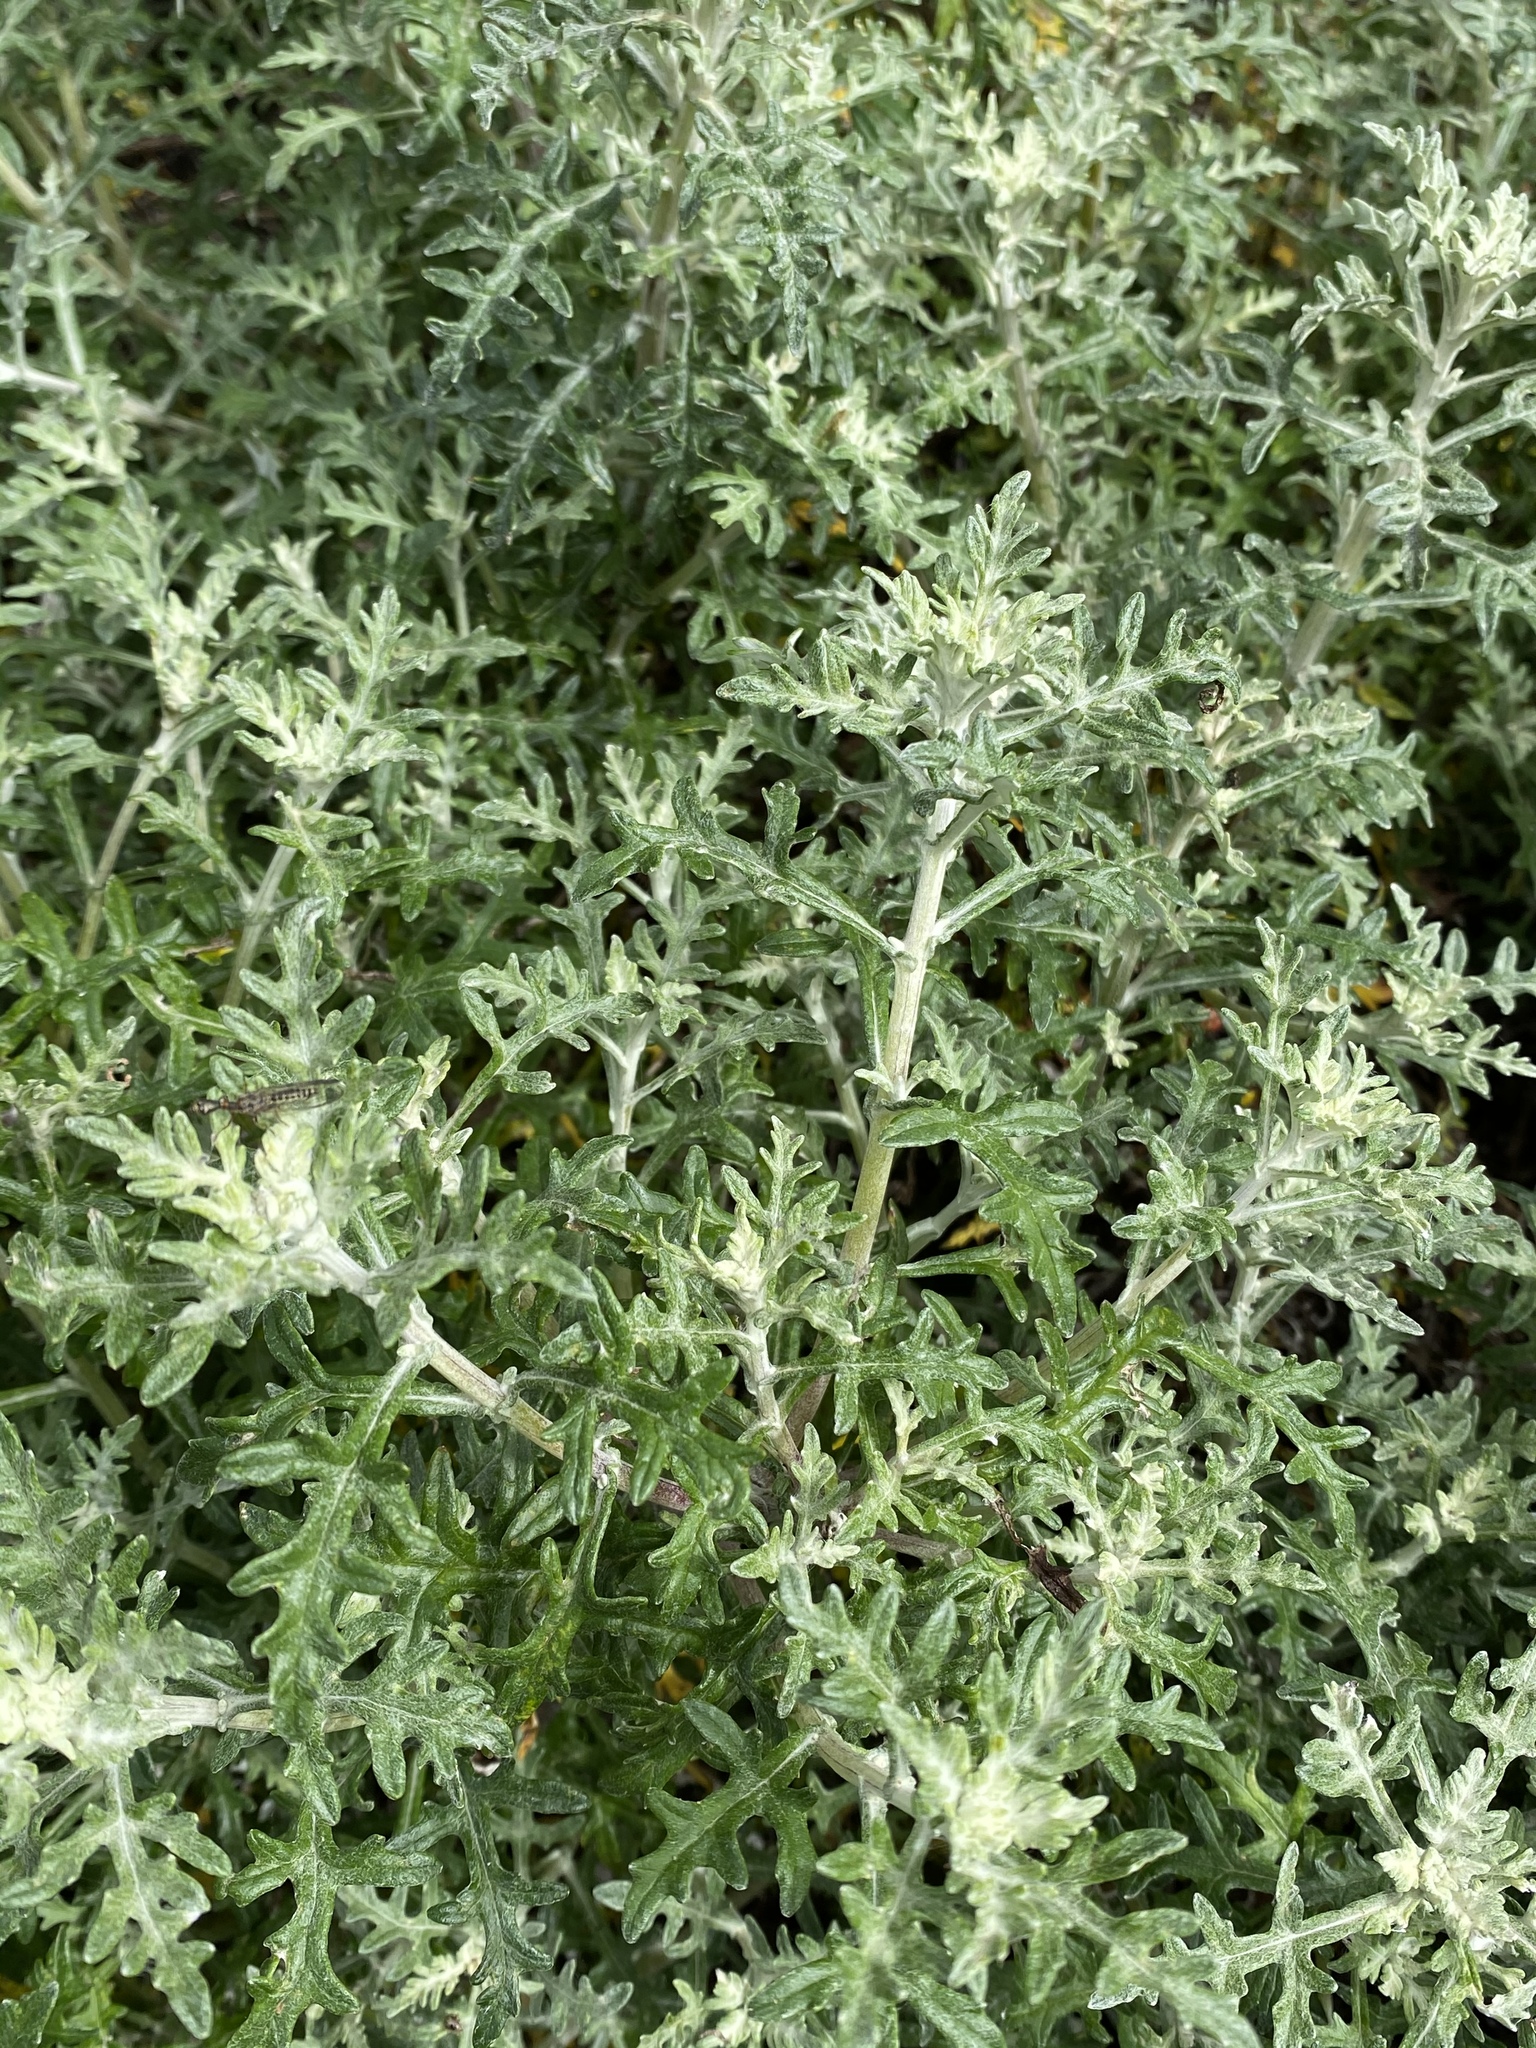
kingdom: Plantae
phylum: Tracheophyta
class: Magnoliopsida
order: Asterales
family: Asteraceae
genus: Eriophyllum
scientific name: Eriophyllum staechadifolium
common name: Lizardtail
